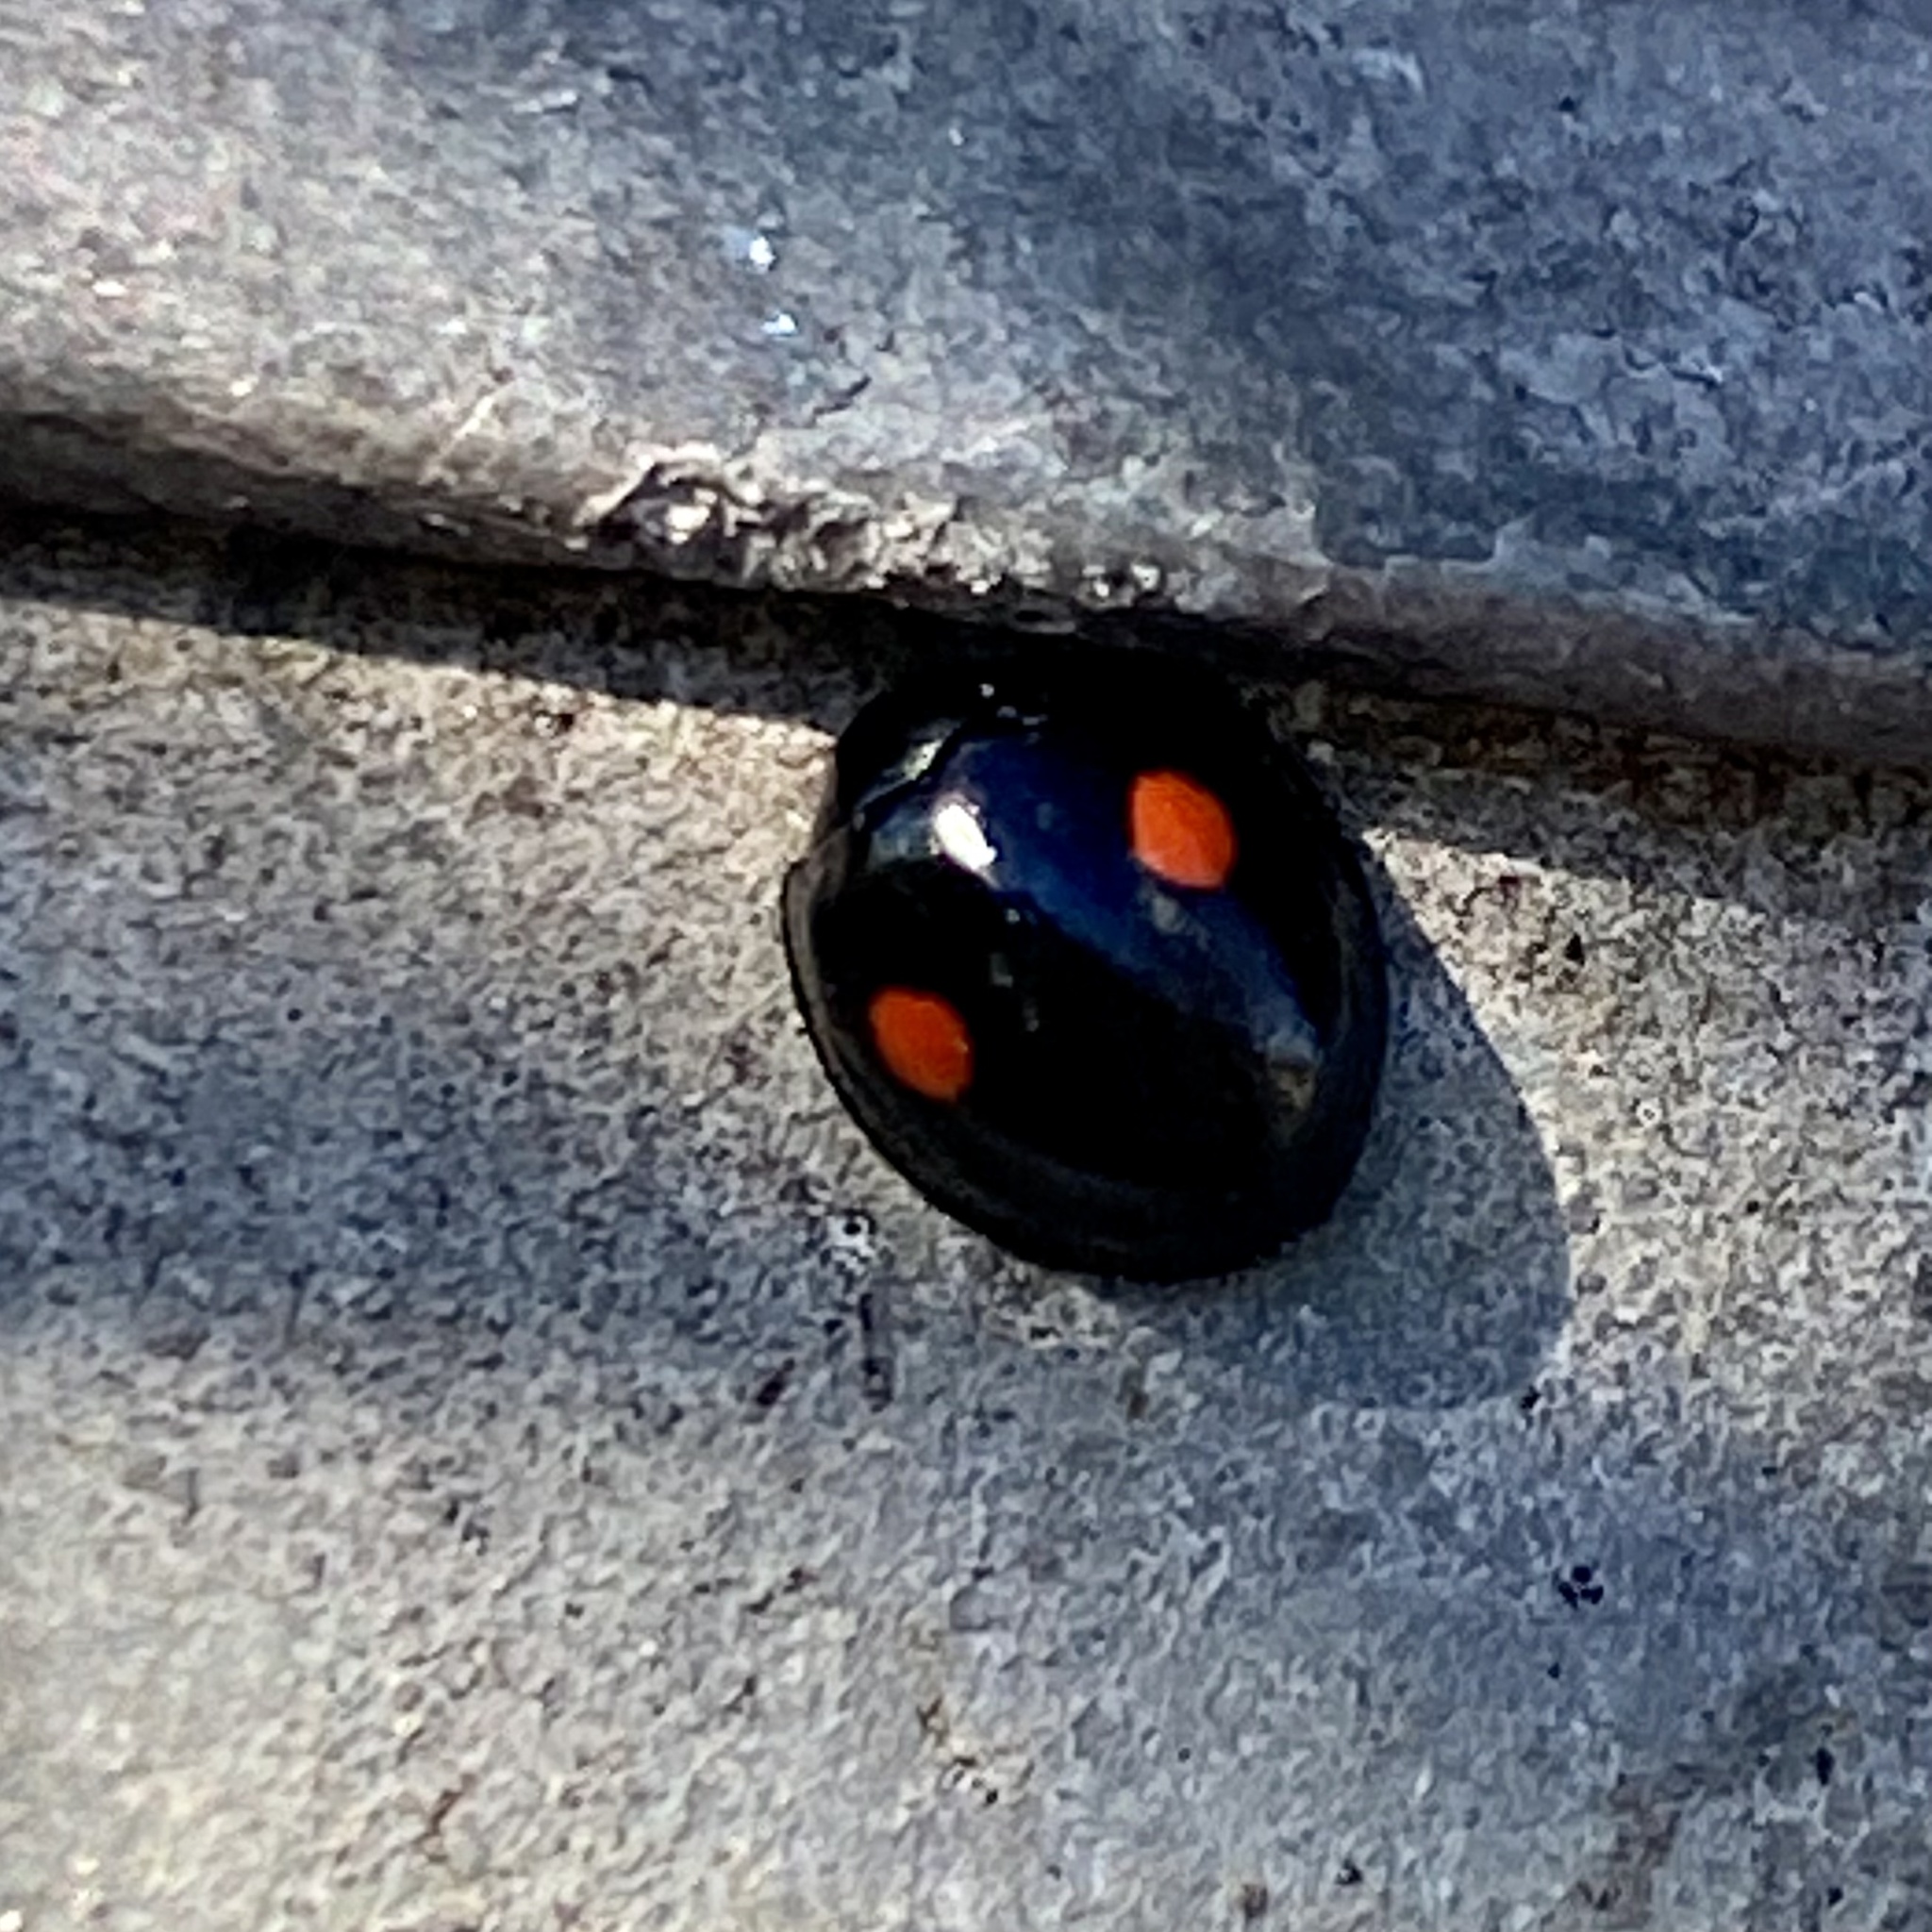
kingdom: Animalia
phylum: Arthropoda
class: Insecta
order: Coleoptera
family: Coccinellidae
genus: Chilocorus
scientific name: Chilocorus stigma
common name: Twicestabbed lady beetle
